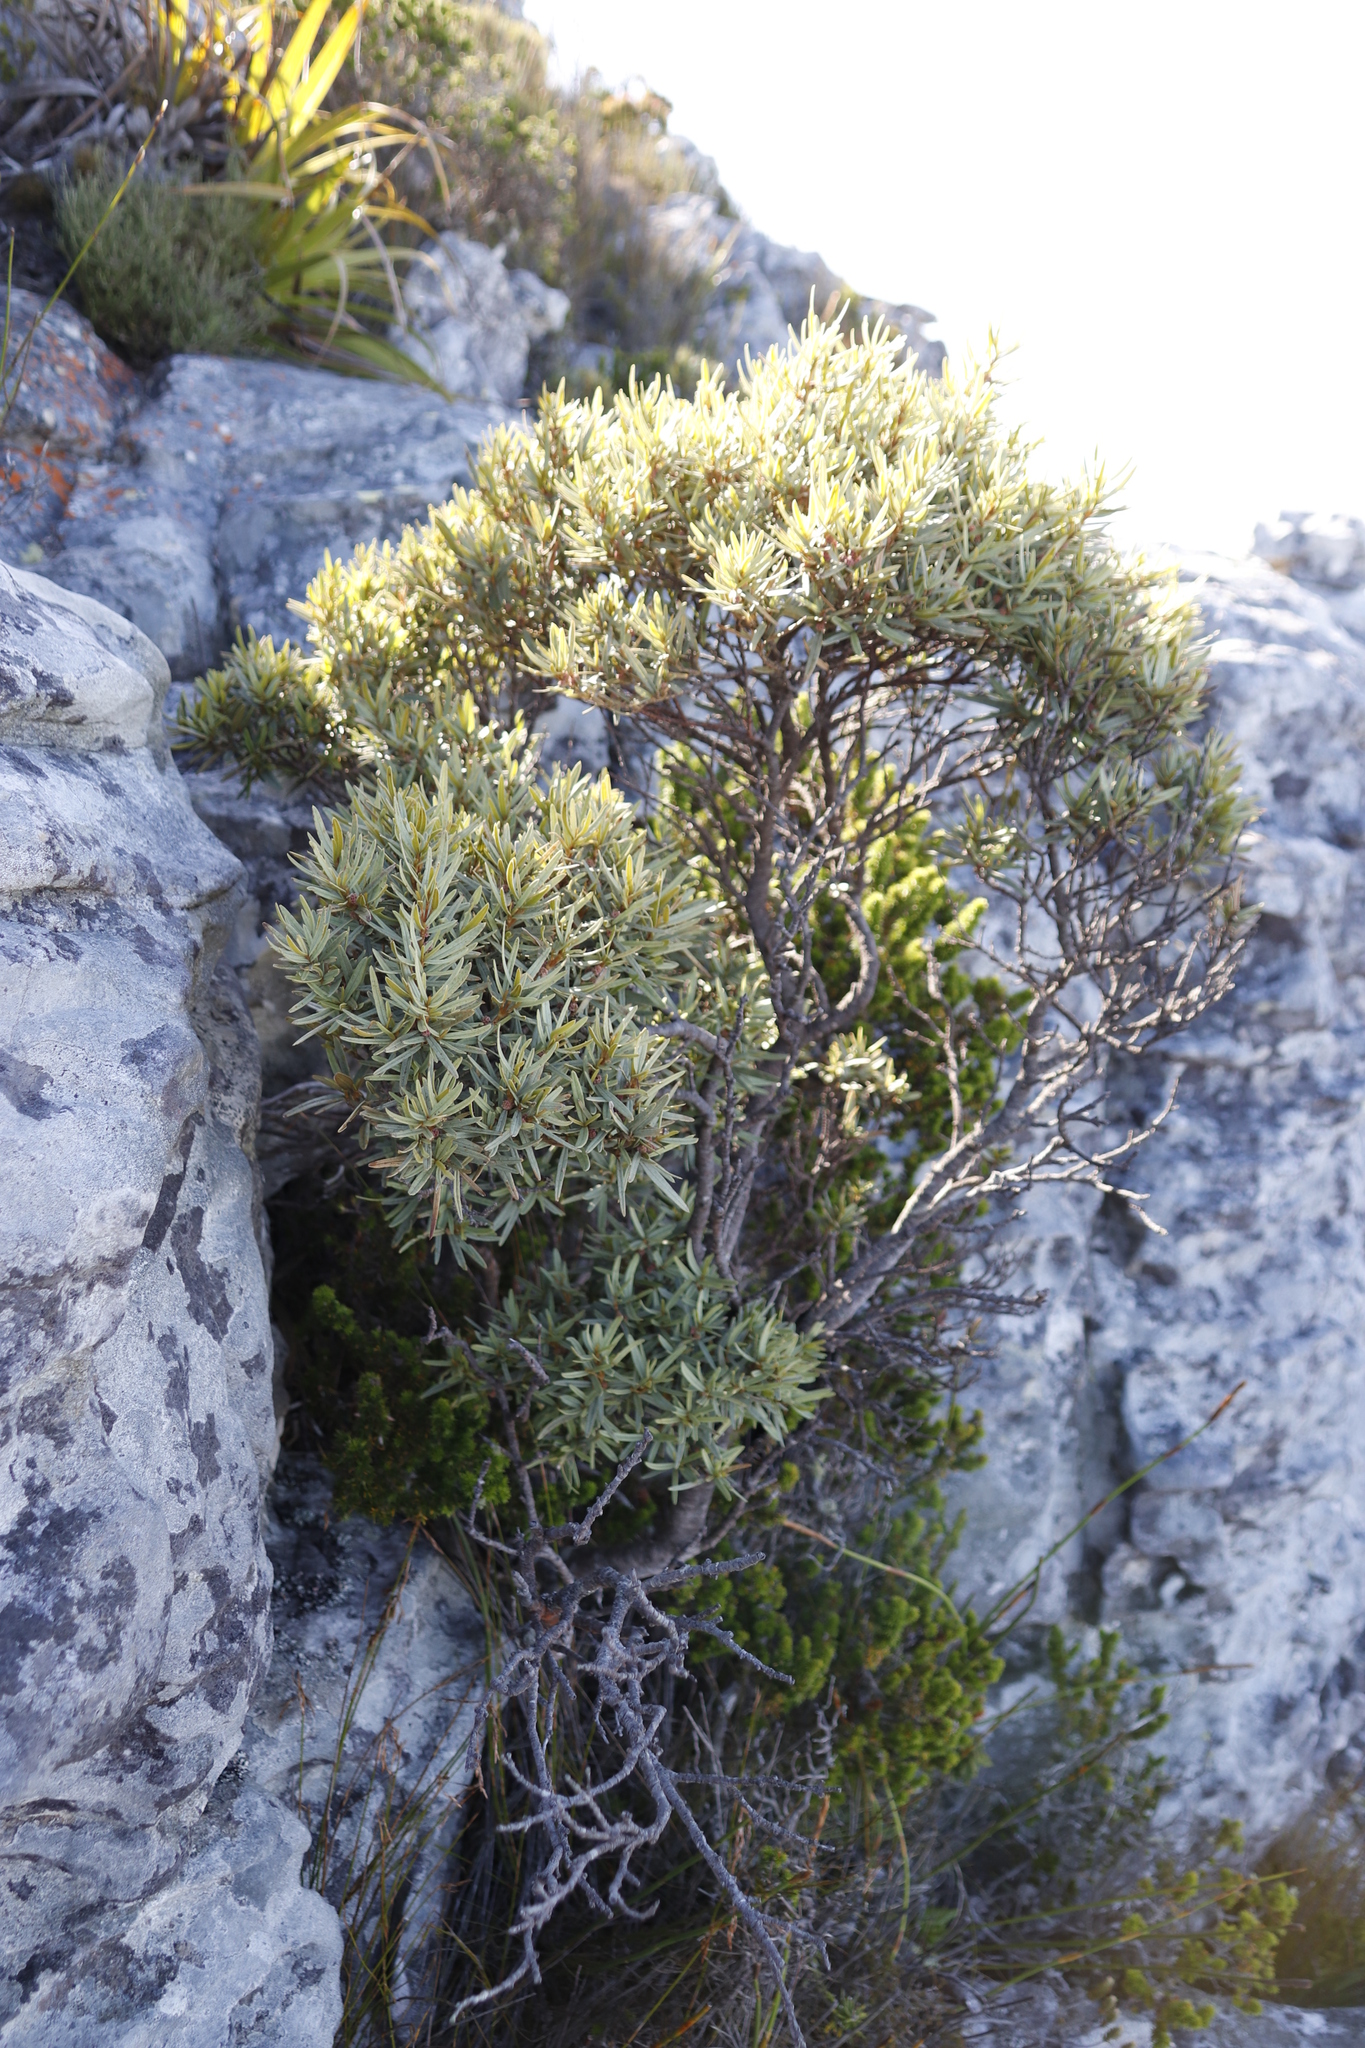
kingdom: Plantae
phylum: Tracheophyta
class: Magnoliopsida
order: Cornales
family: Grubbiaceae
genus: Grubbia
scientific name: Grubbia tomentosa
